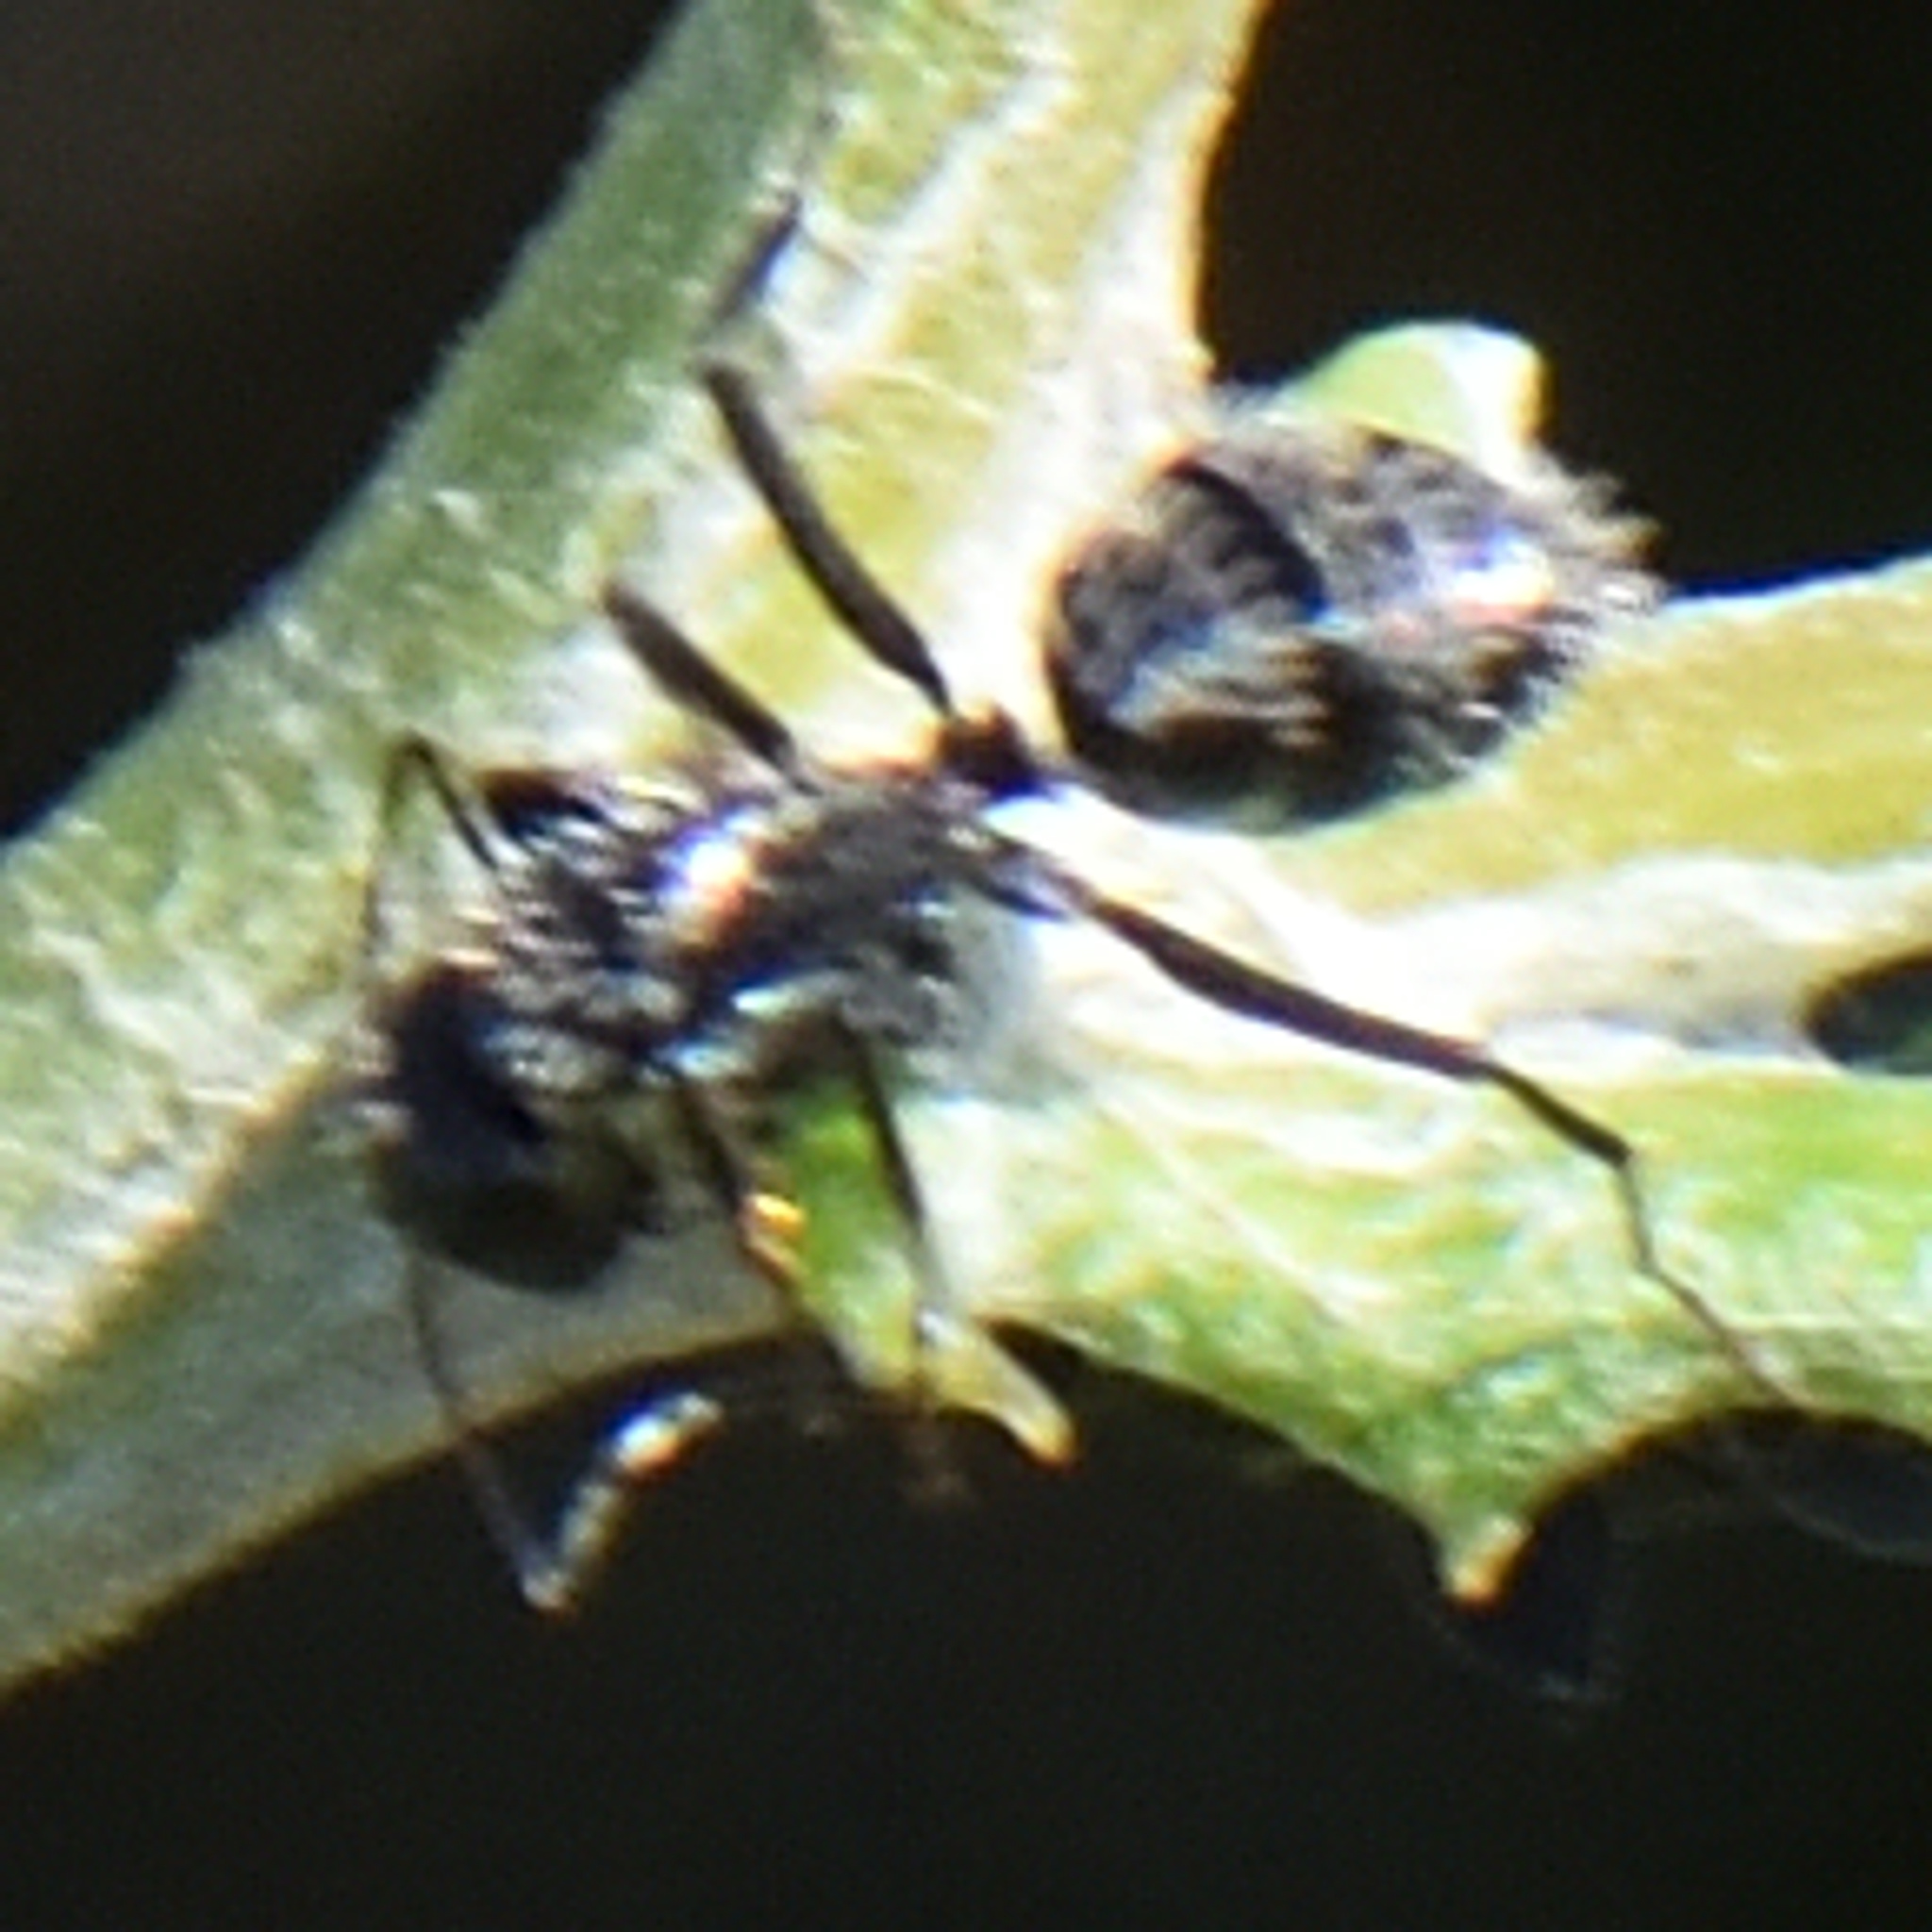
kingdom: Animalia
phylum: Arthropoda
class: Insecta
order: Hymenoptera
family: Formicidae
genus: Camponotus
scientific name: Camponotus niveosetosus
